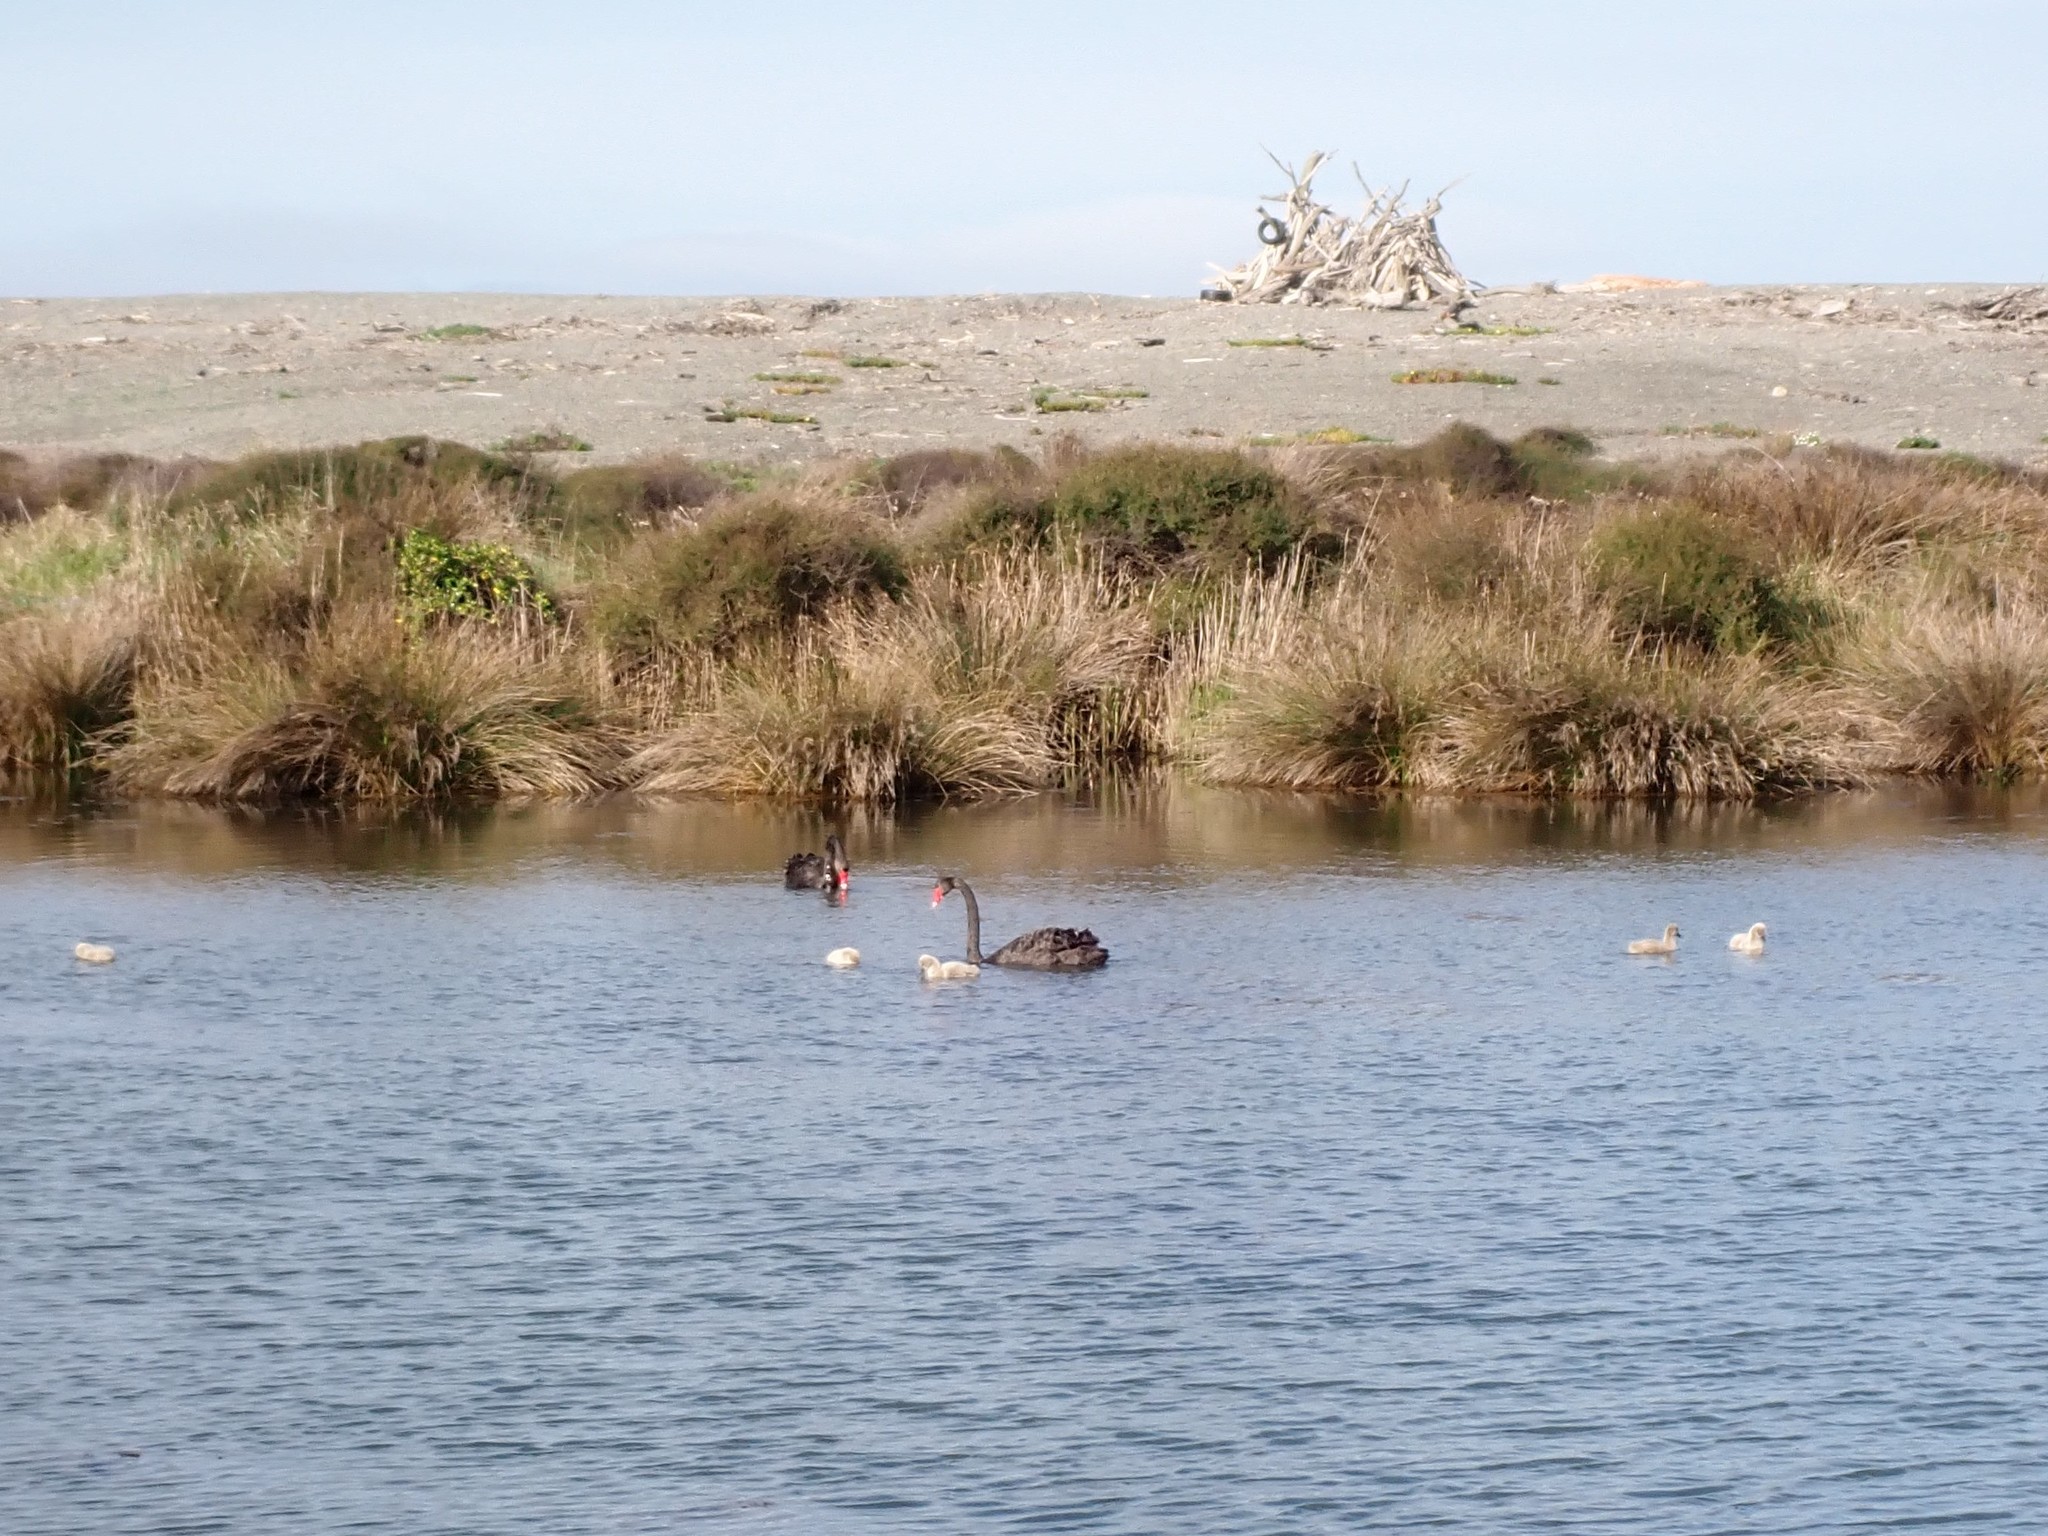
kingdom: Animalia
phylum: Chordata
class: Aves
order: Anseriformes
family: Anatidae
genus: Cygnus
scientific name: Cygnus atratus
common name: Black swan
